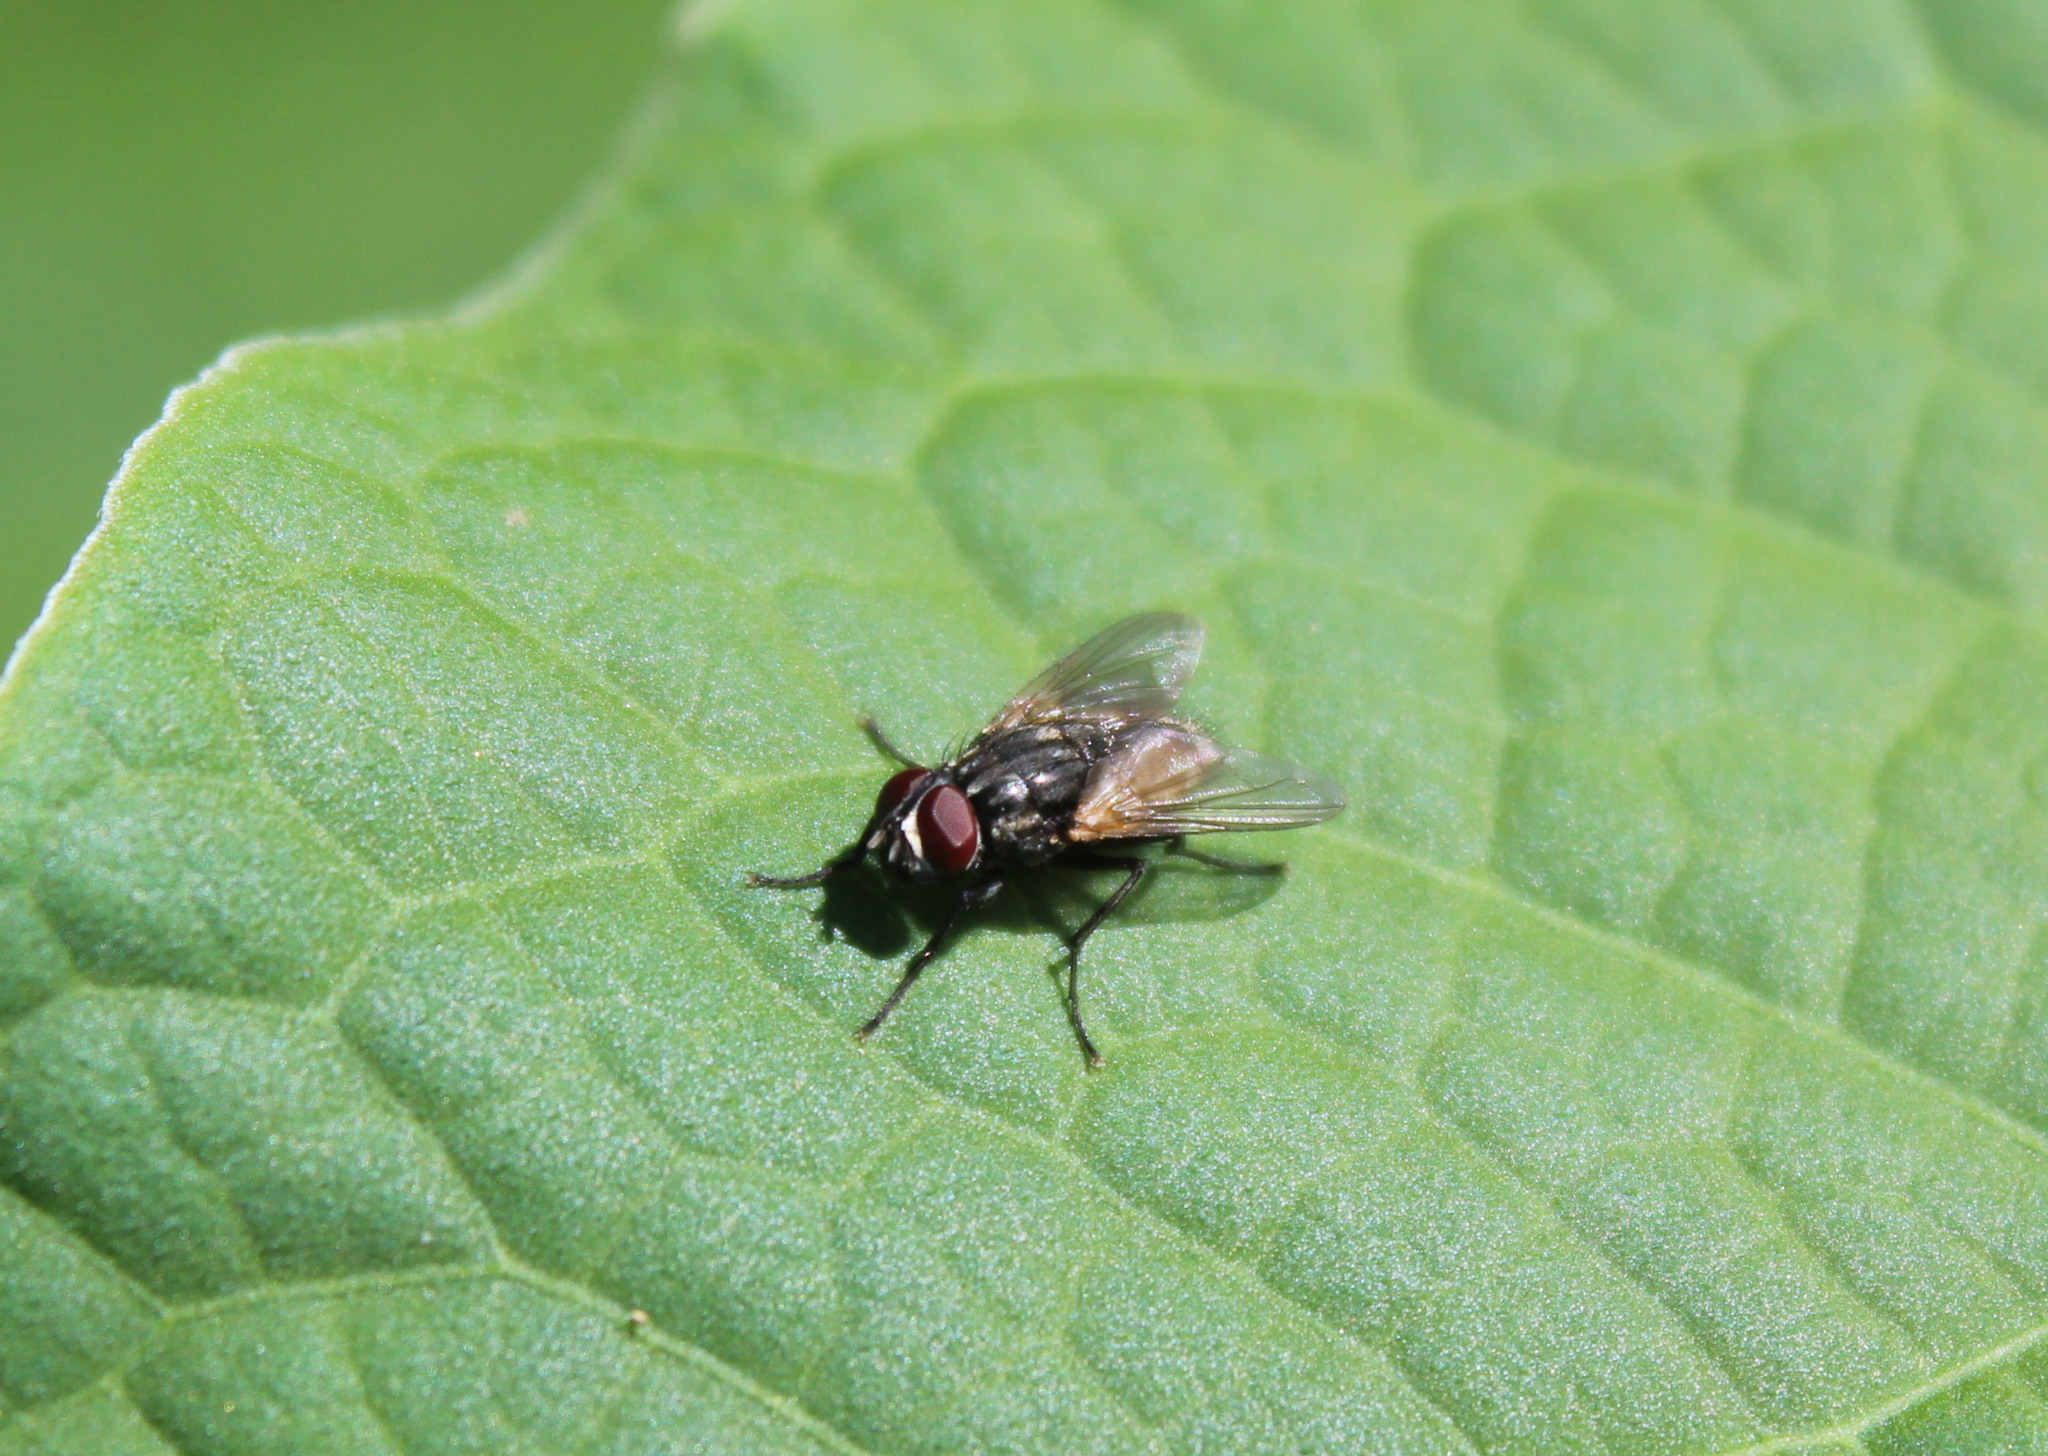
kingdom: Animalia
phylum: Arthropoda
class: Insecta
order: Diptera
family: Muscidae
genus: Musca
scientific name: Musca domestica
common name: House fly
